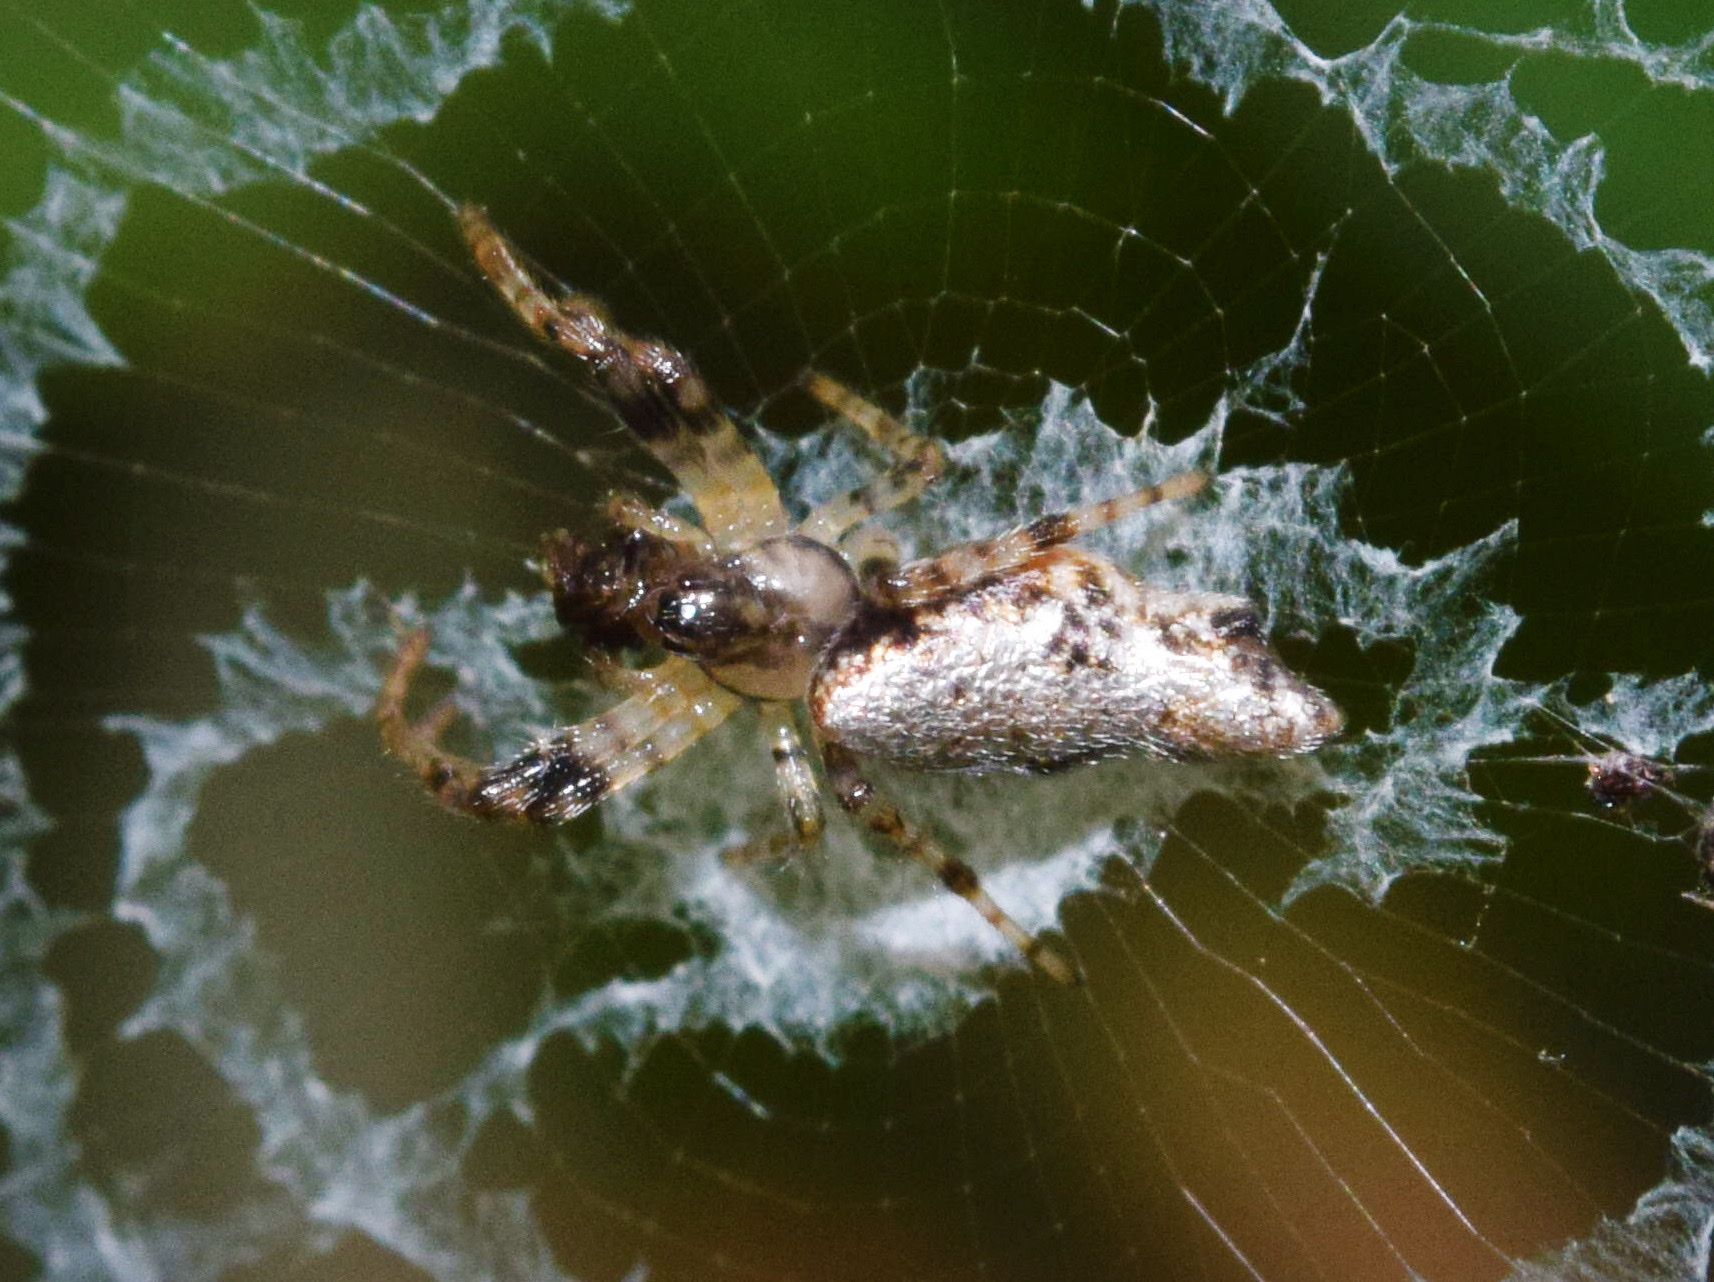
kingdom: Animalia
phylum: Arthropoda
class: Arachnida
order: Araneae
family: Araneidae
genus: Cyclosa
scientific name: Cyclosa insulana
